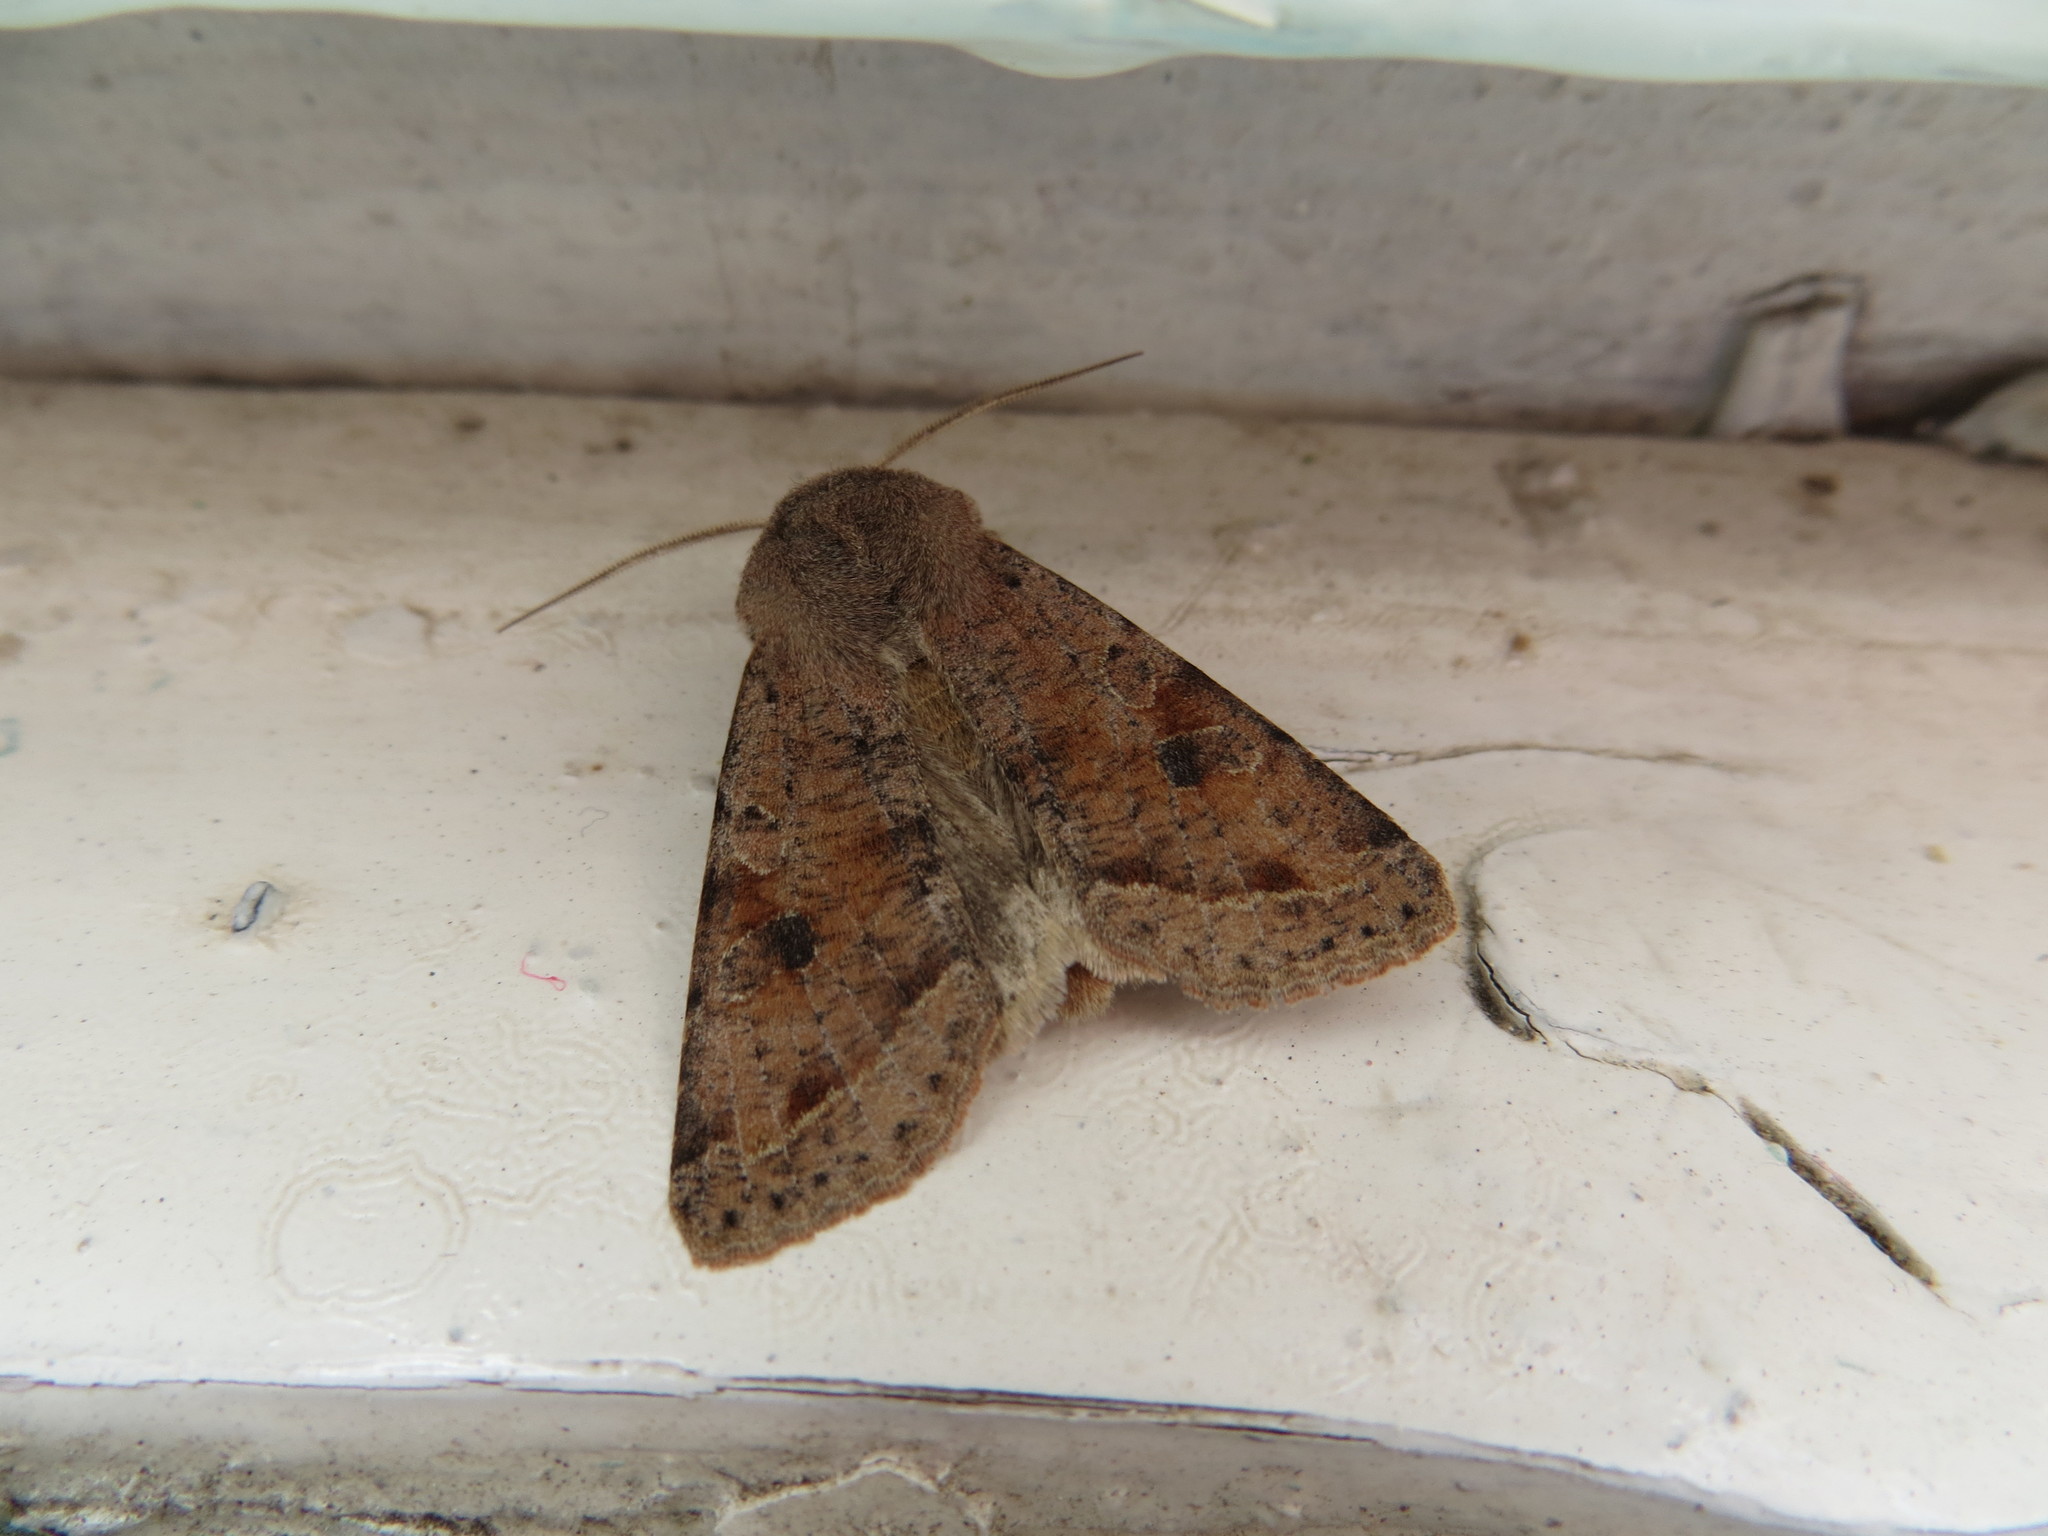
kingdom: Animalia
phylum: Arthropoda
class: Insecta
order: Lepidoptera
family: Noctuidae
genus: Orthosia
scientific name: Orthosia incerta
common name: Clouded drab
